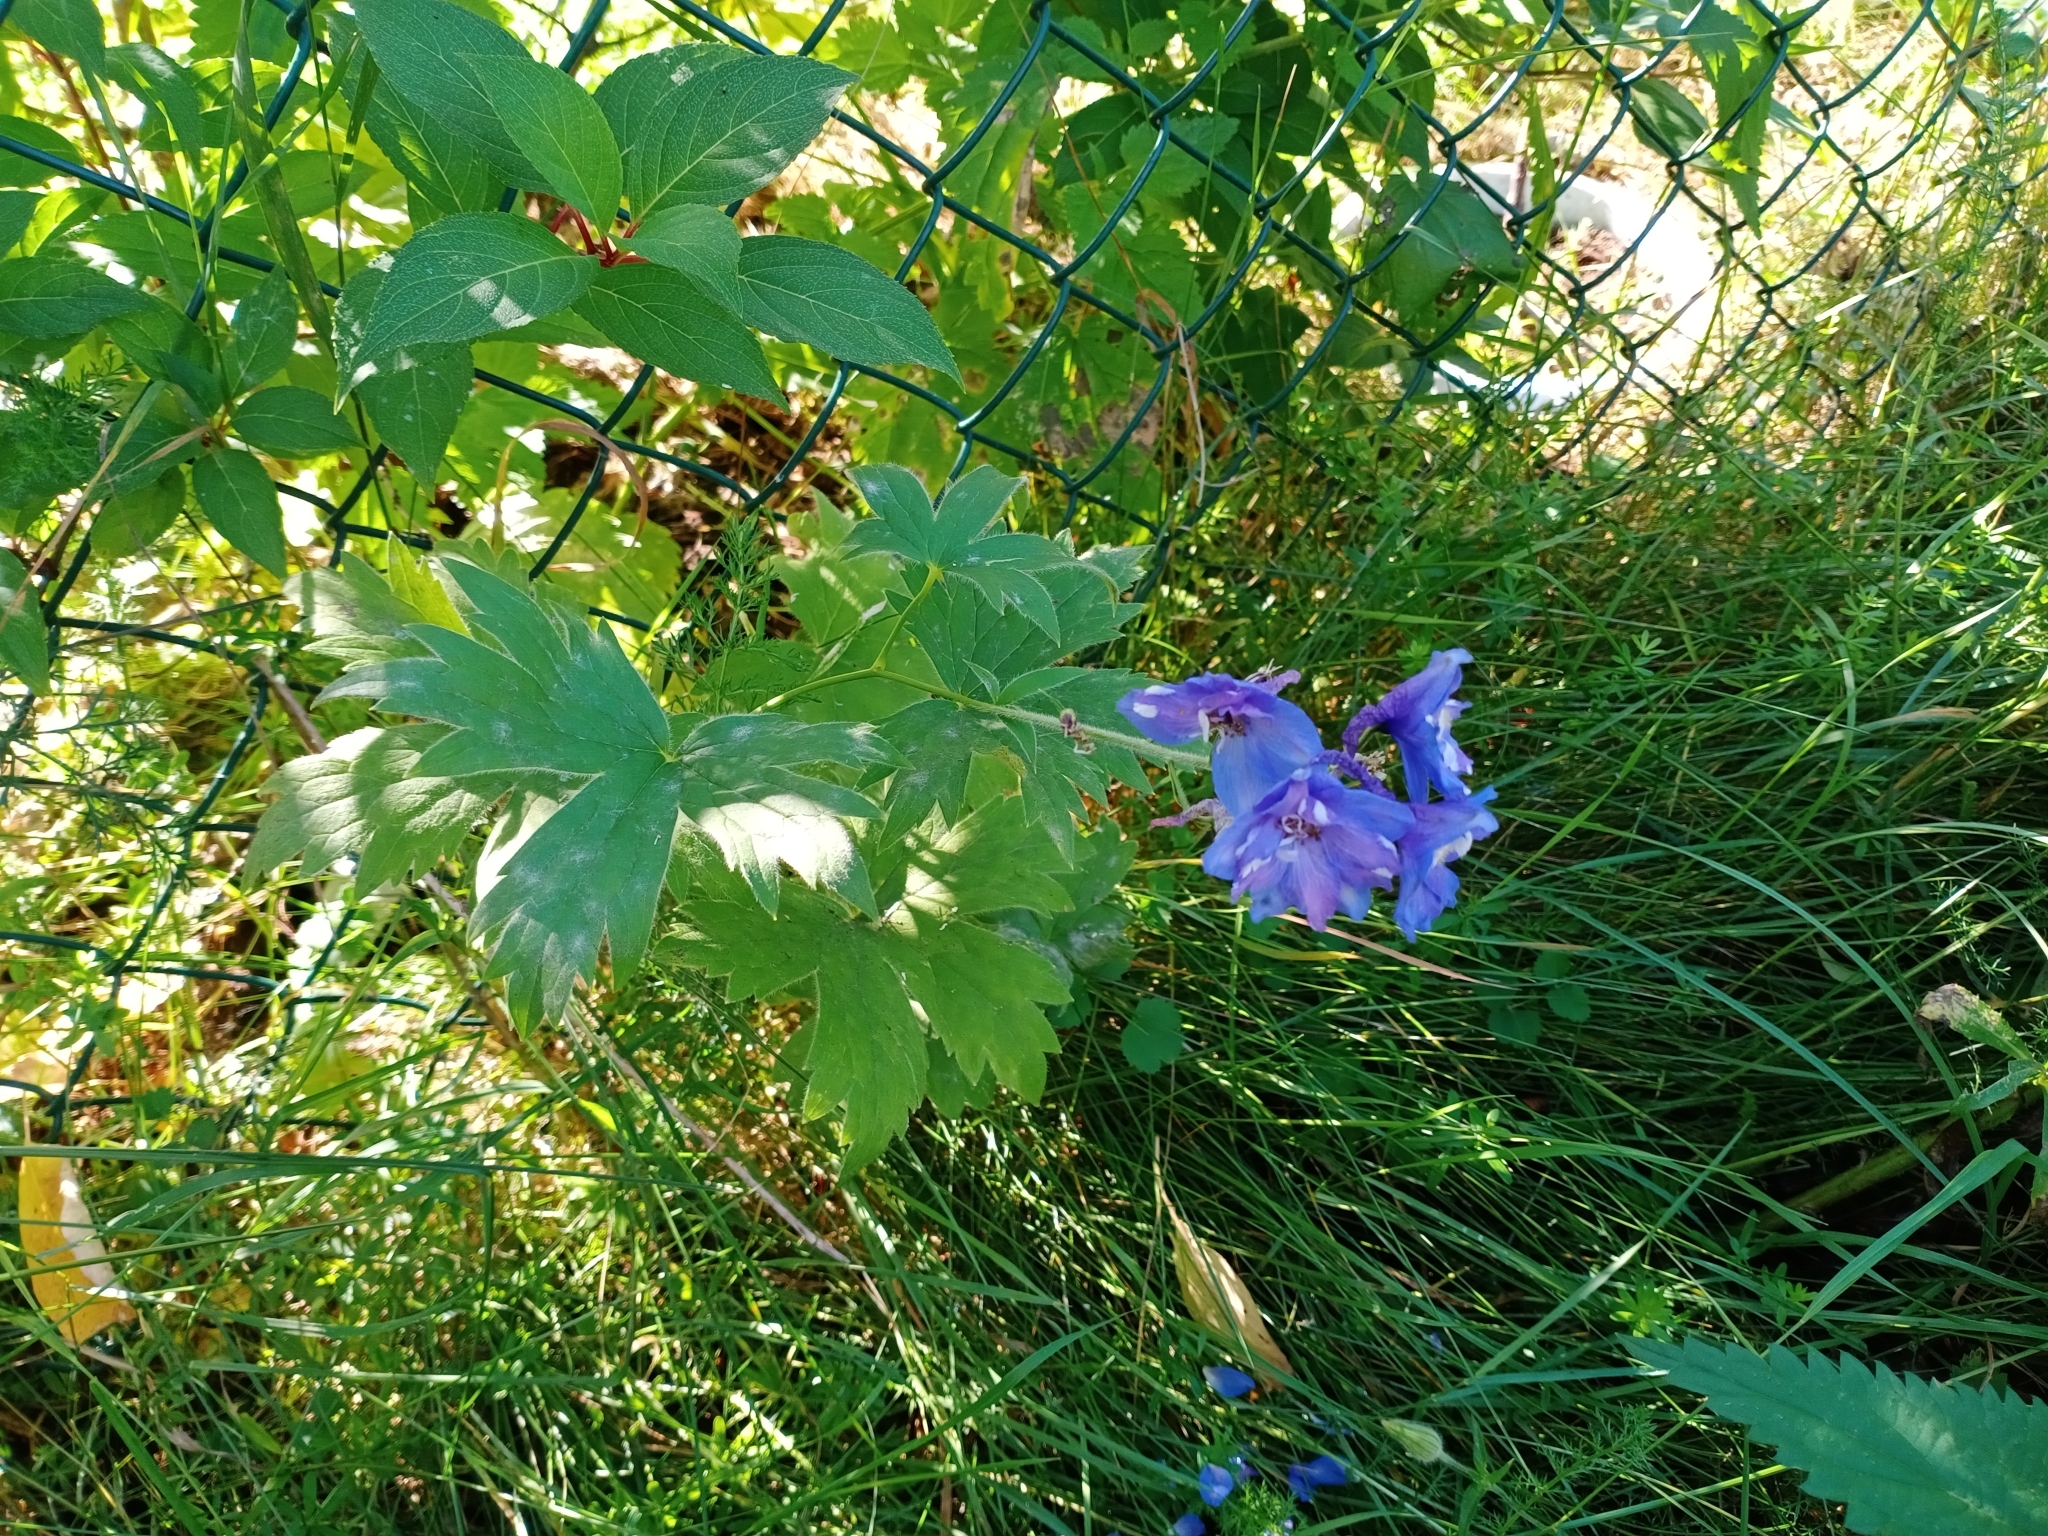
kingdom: Plantae
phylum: Tracheophyta
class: Magnoliopsida
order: Ranunculales
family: Ranunculaceae
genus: Delphinium
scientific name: Delphinium cultorum
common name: Garden delphinium
